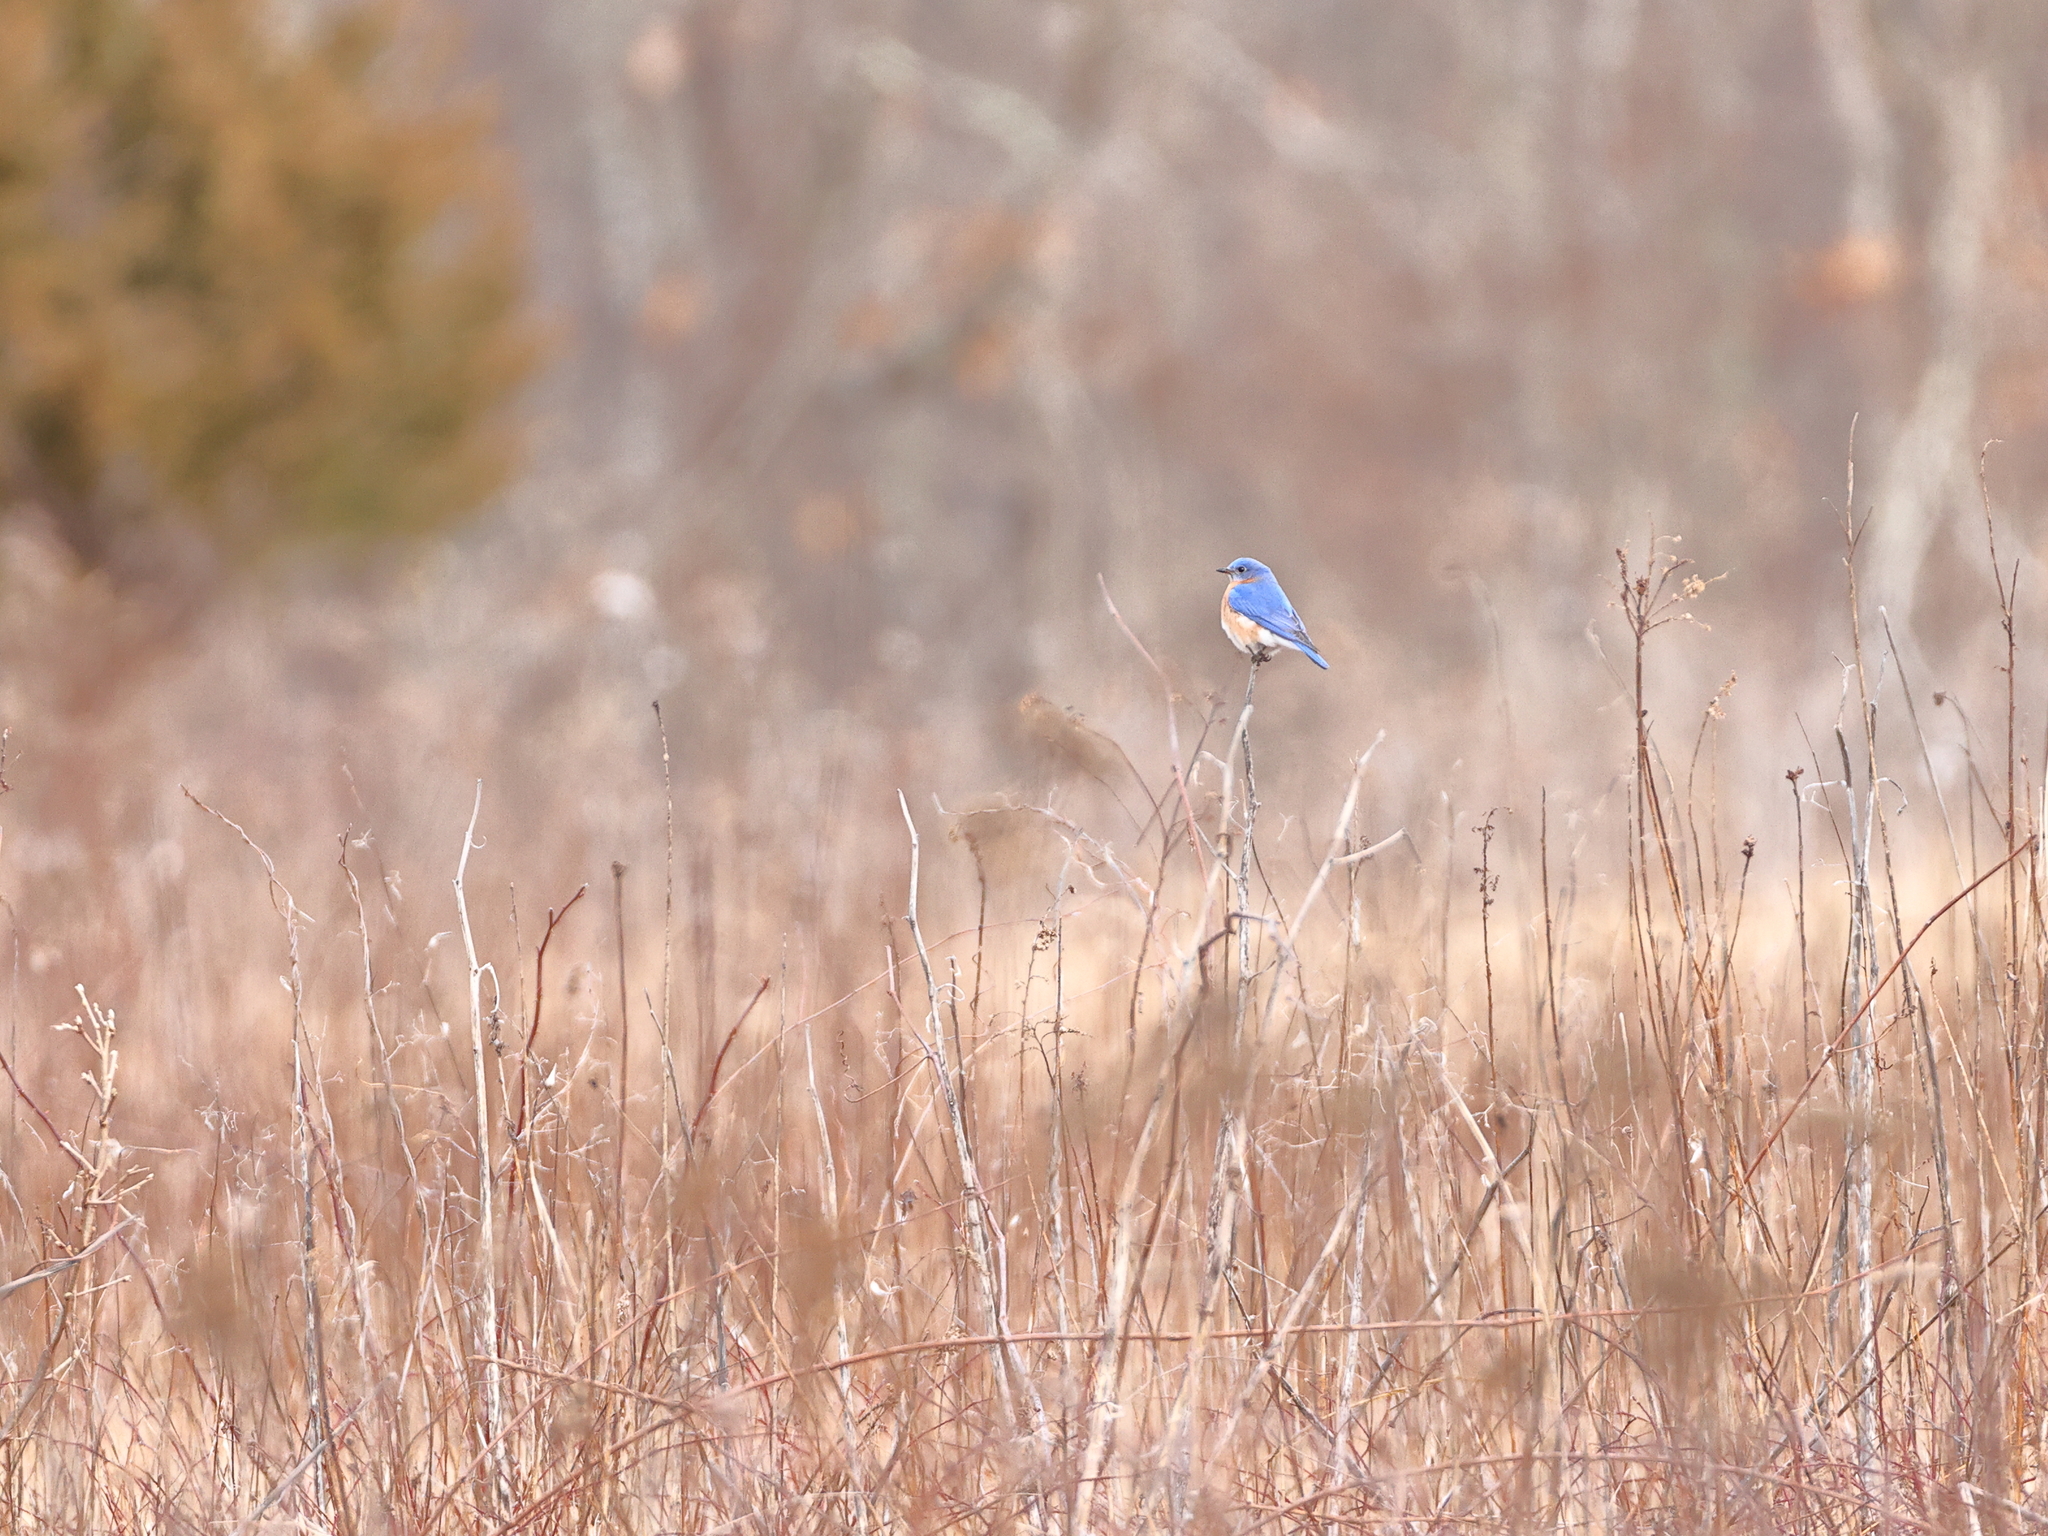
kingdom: Animalia
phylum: Chordata
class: Aves
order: Passeriformes
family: Turdidae
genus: Sialia
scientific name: Sialia sialis
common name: Eastern bluebird
